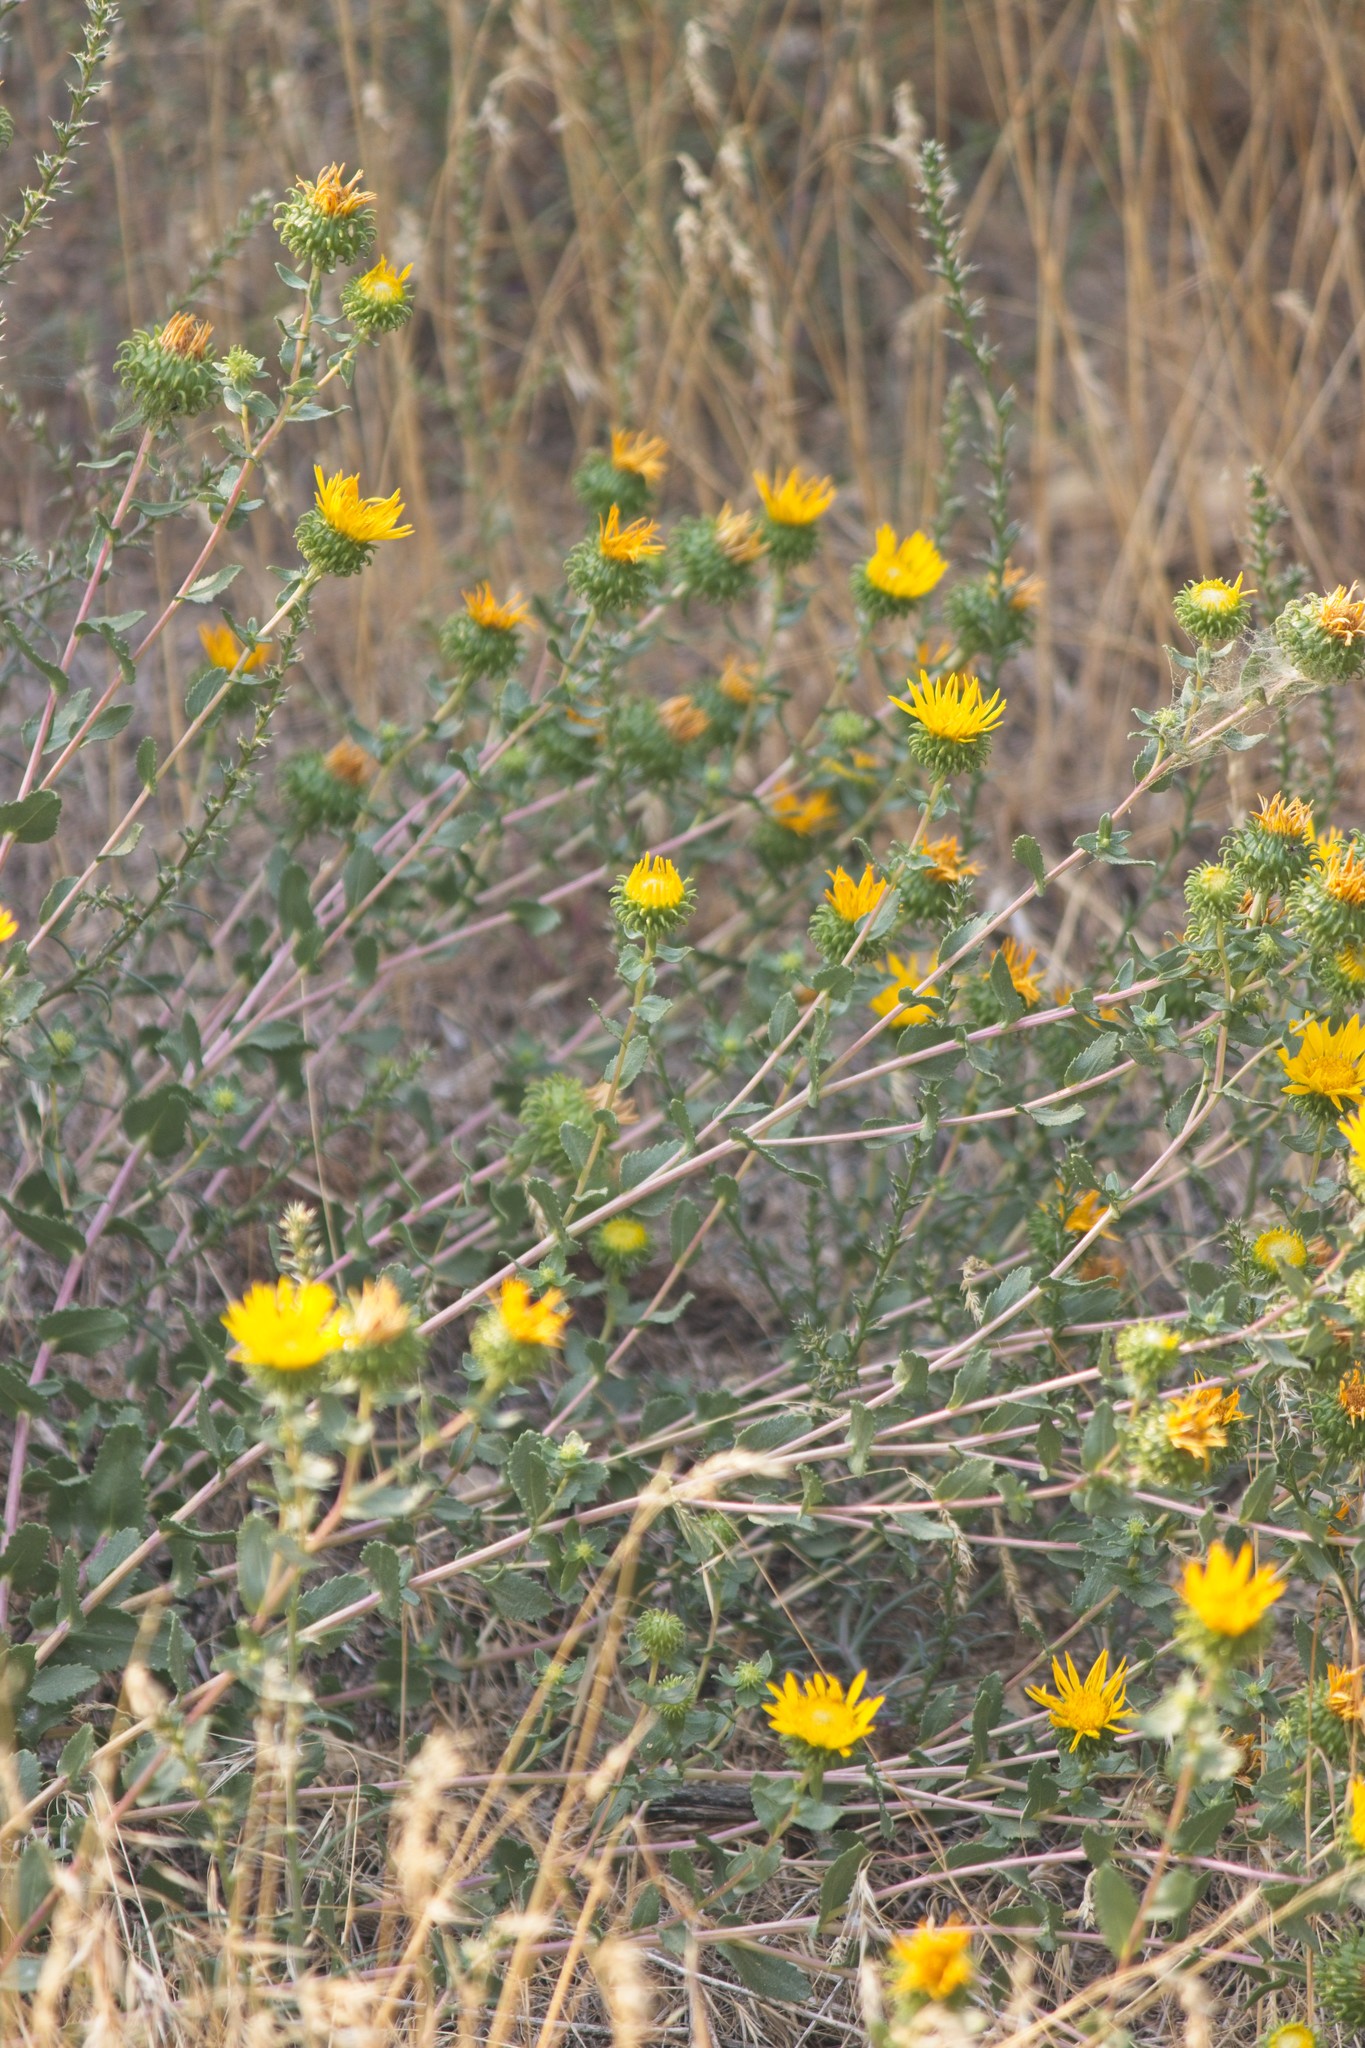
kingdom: Plantae
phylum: Tracheophyta
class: Magnoliopsida
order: Asterales
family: Asteraceae
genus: Grindelia
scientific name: Grindelia squarrosa
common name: Curly-cup gumweed
